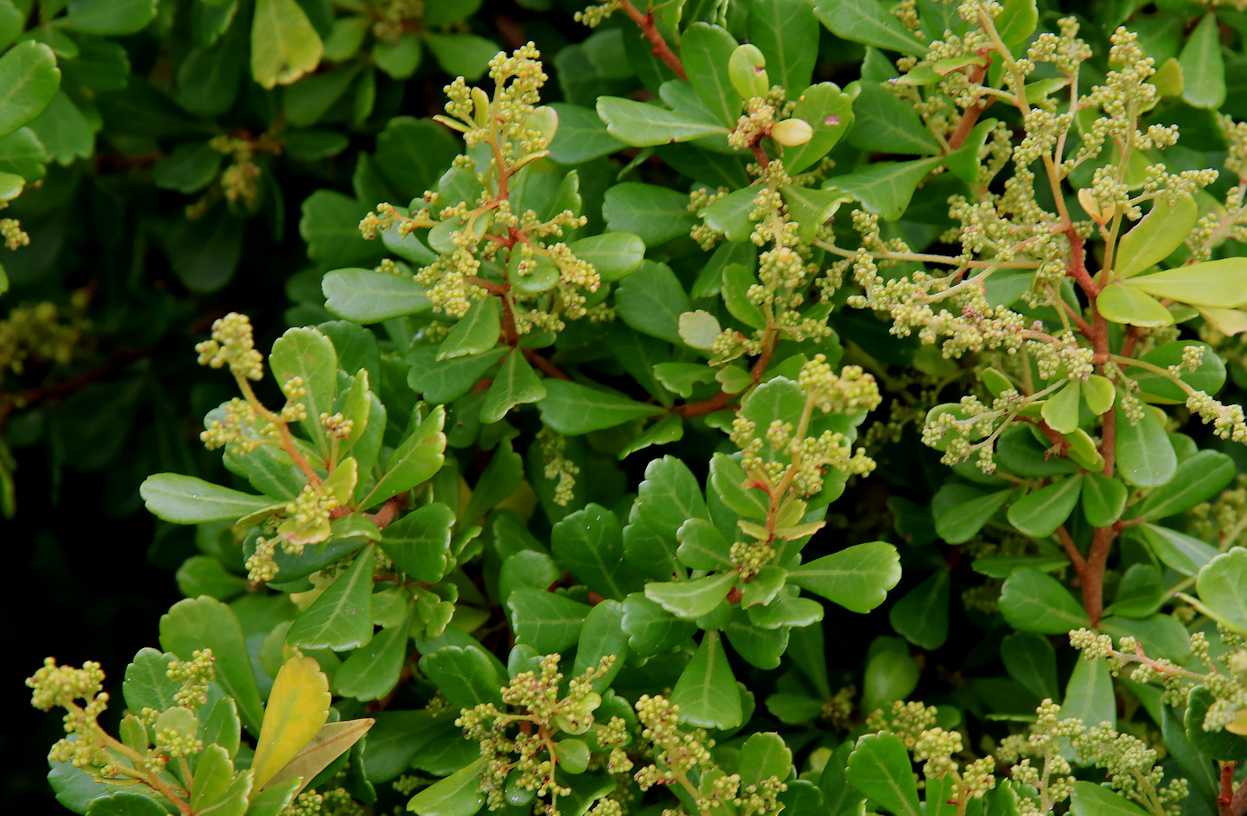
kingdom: Plantae
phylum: Tracheophyta
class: Magnoliopsida
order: Sapindales
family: Anacardiaceae
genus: Searsia
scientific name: Searsia crenata
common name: Crowberry
